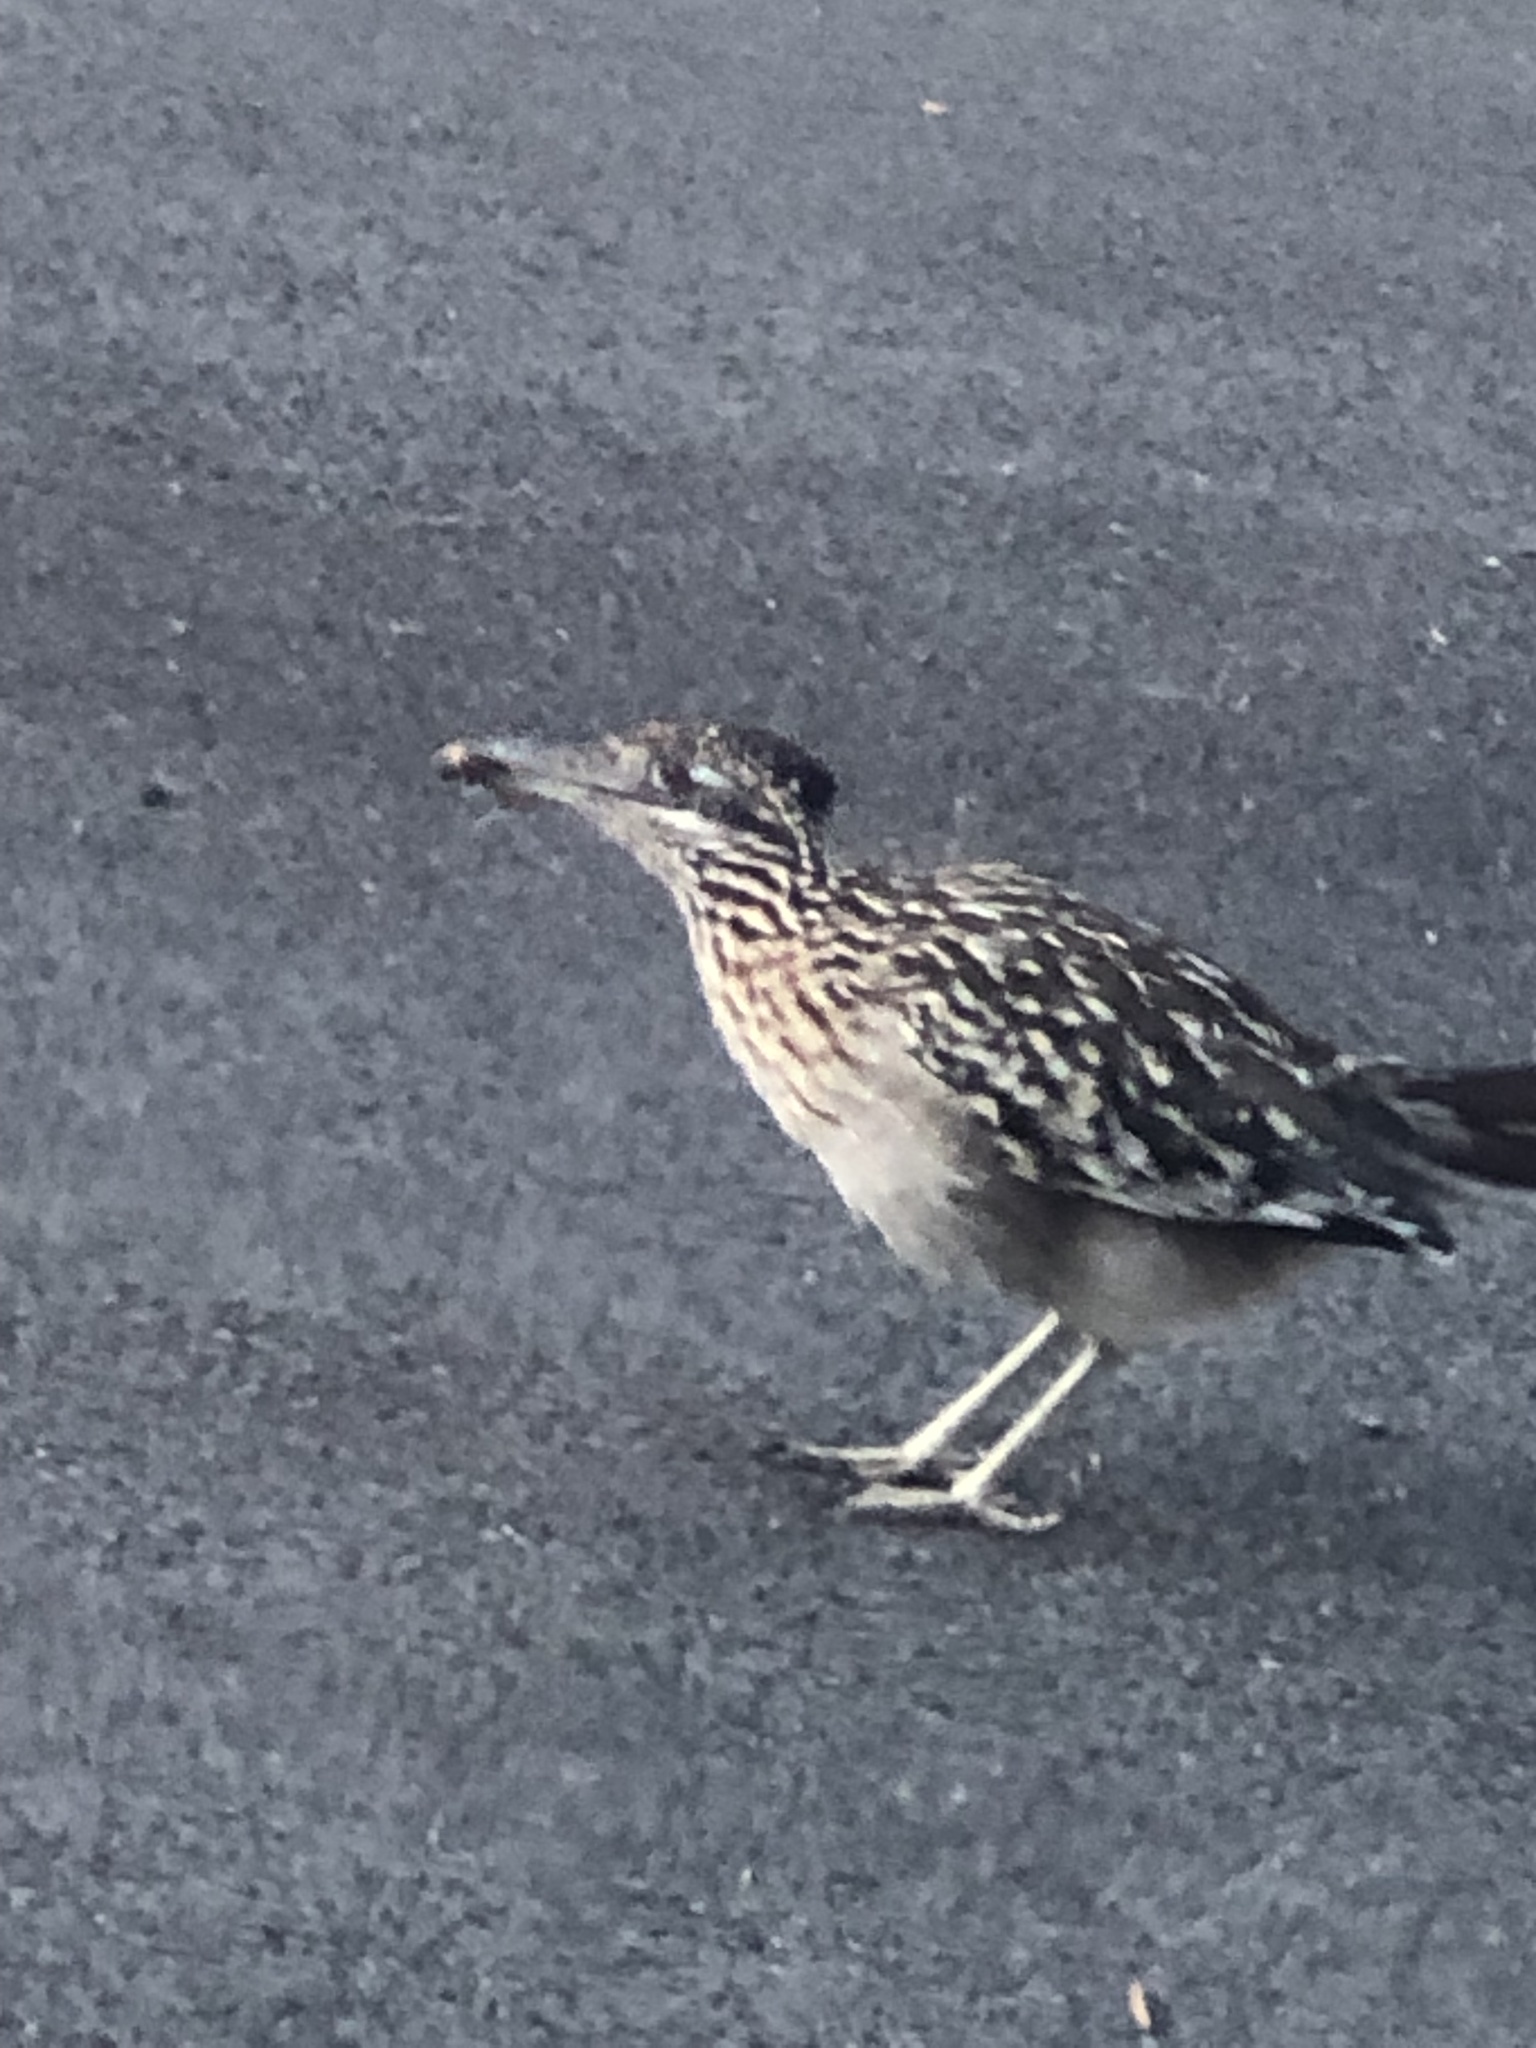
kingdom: Animalia
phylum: Chordata
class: Aves
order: Cuculiformes
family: Cuculidae
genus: Geococcyx
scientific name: Geococcyx californianus
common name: Greater roadrunner
